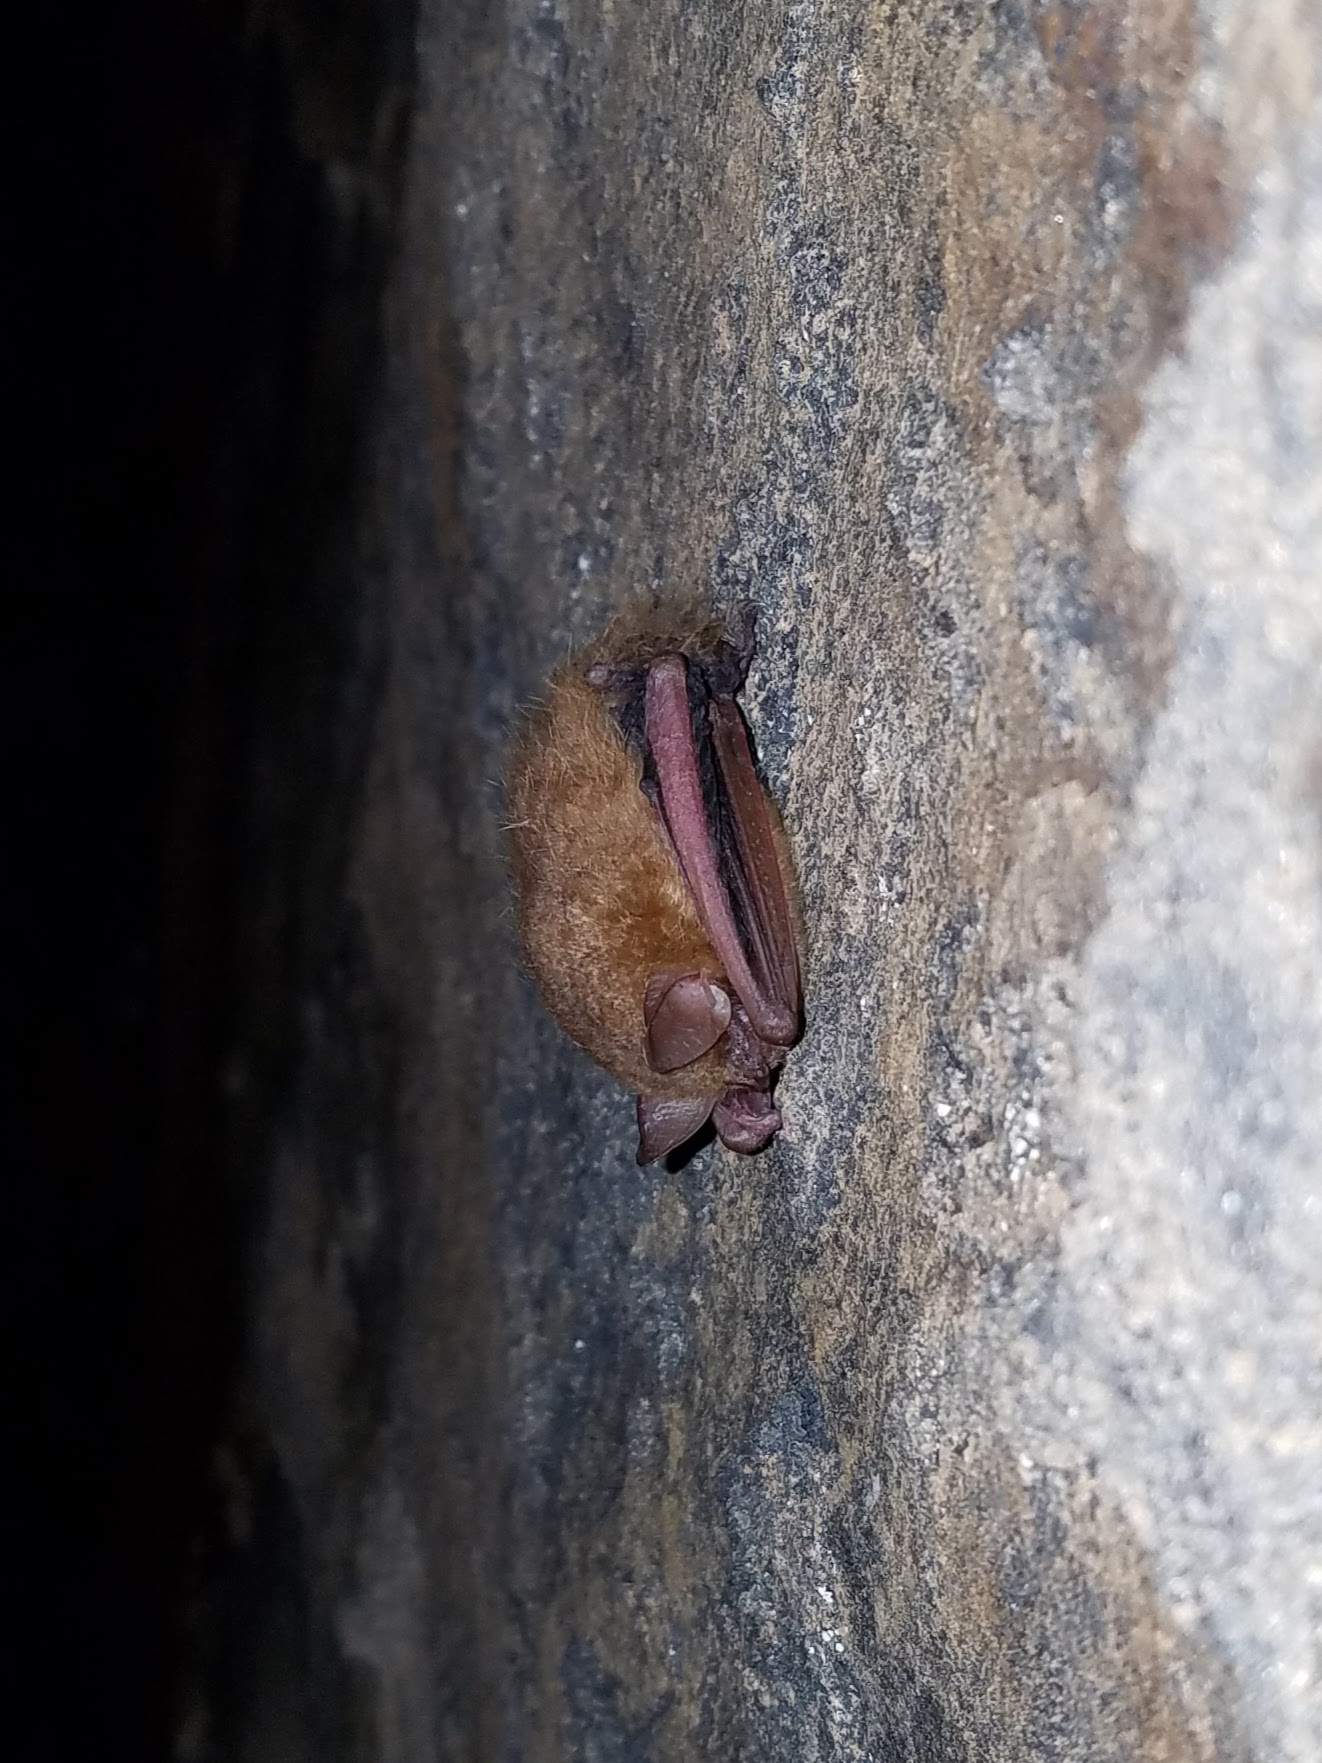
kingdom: Animalia
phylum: Chordata
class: Mammalia
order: Chiroptera
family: Vespertilionidae
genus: Perimyotis
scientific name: Perimyotis subflavus
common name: Eastern pipistrelle
